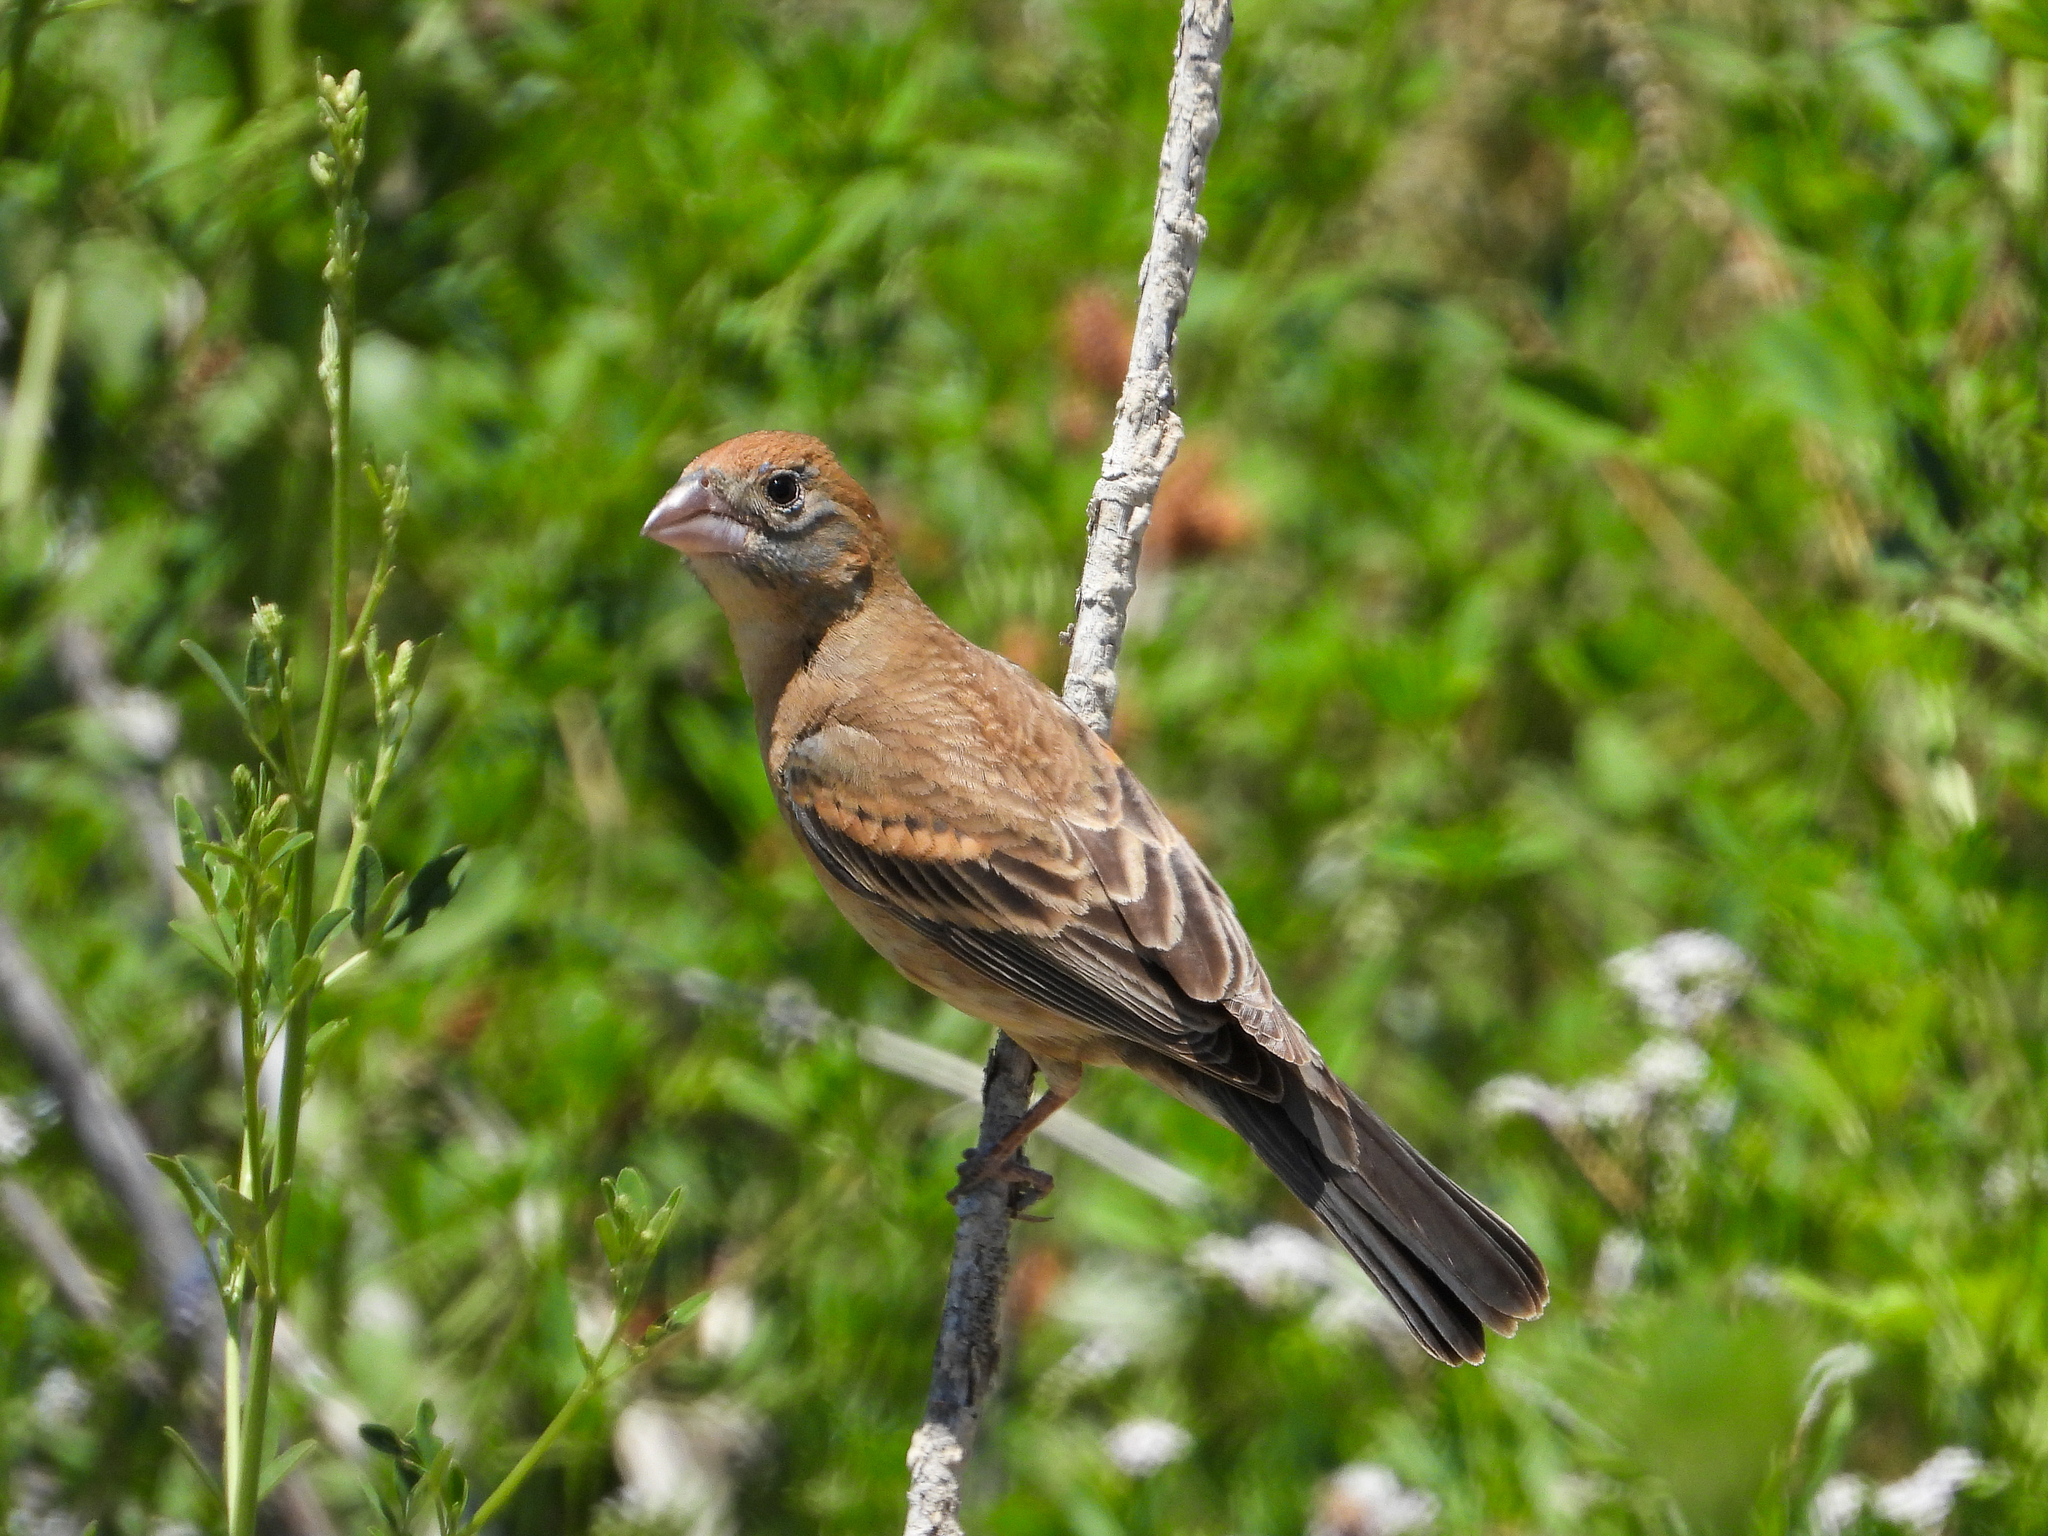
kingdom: Animalia
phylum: Chordata
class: Aves
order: Passeriformes
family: Cardinalidae
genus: Passerina
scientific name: Passerina caerulea
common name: Blue grosbeak
